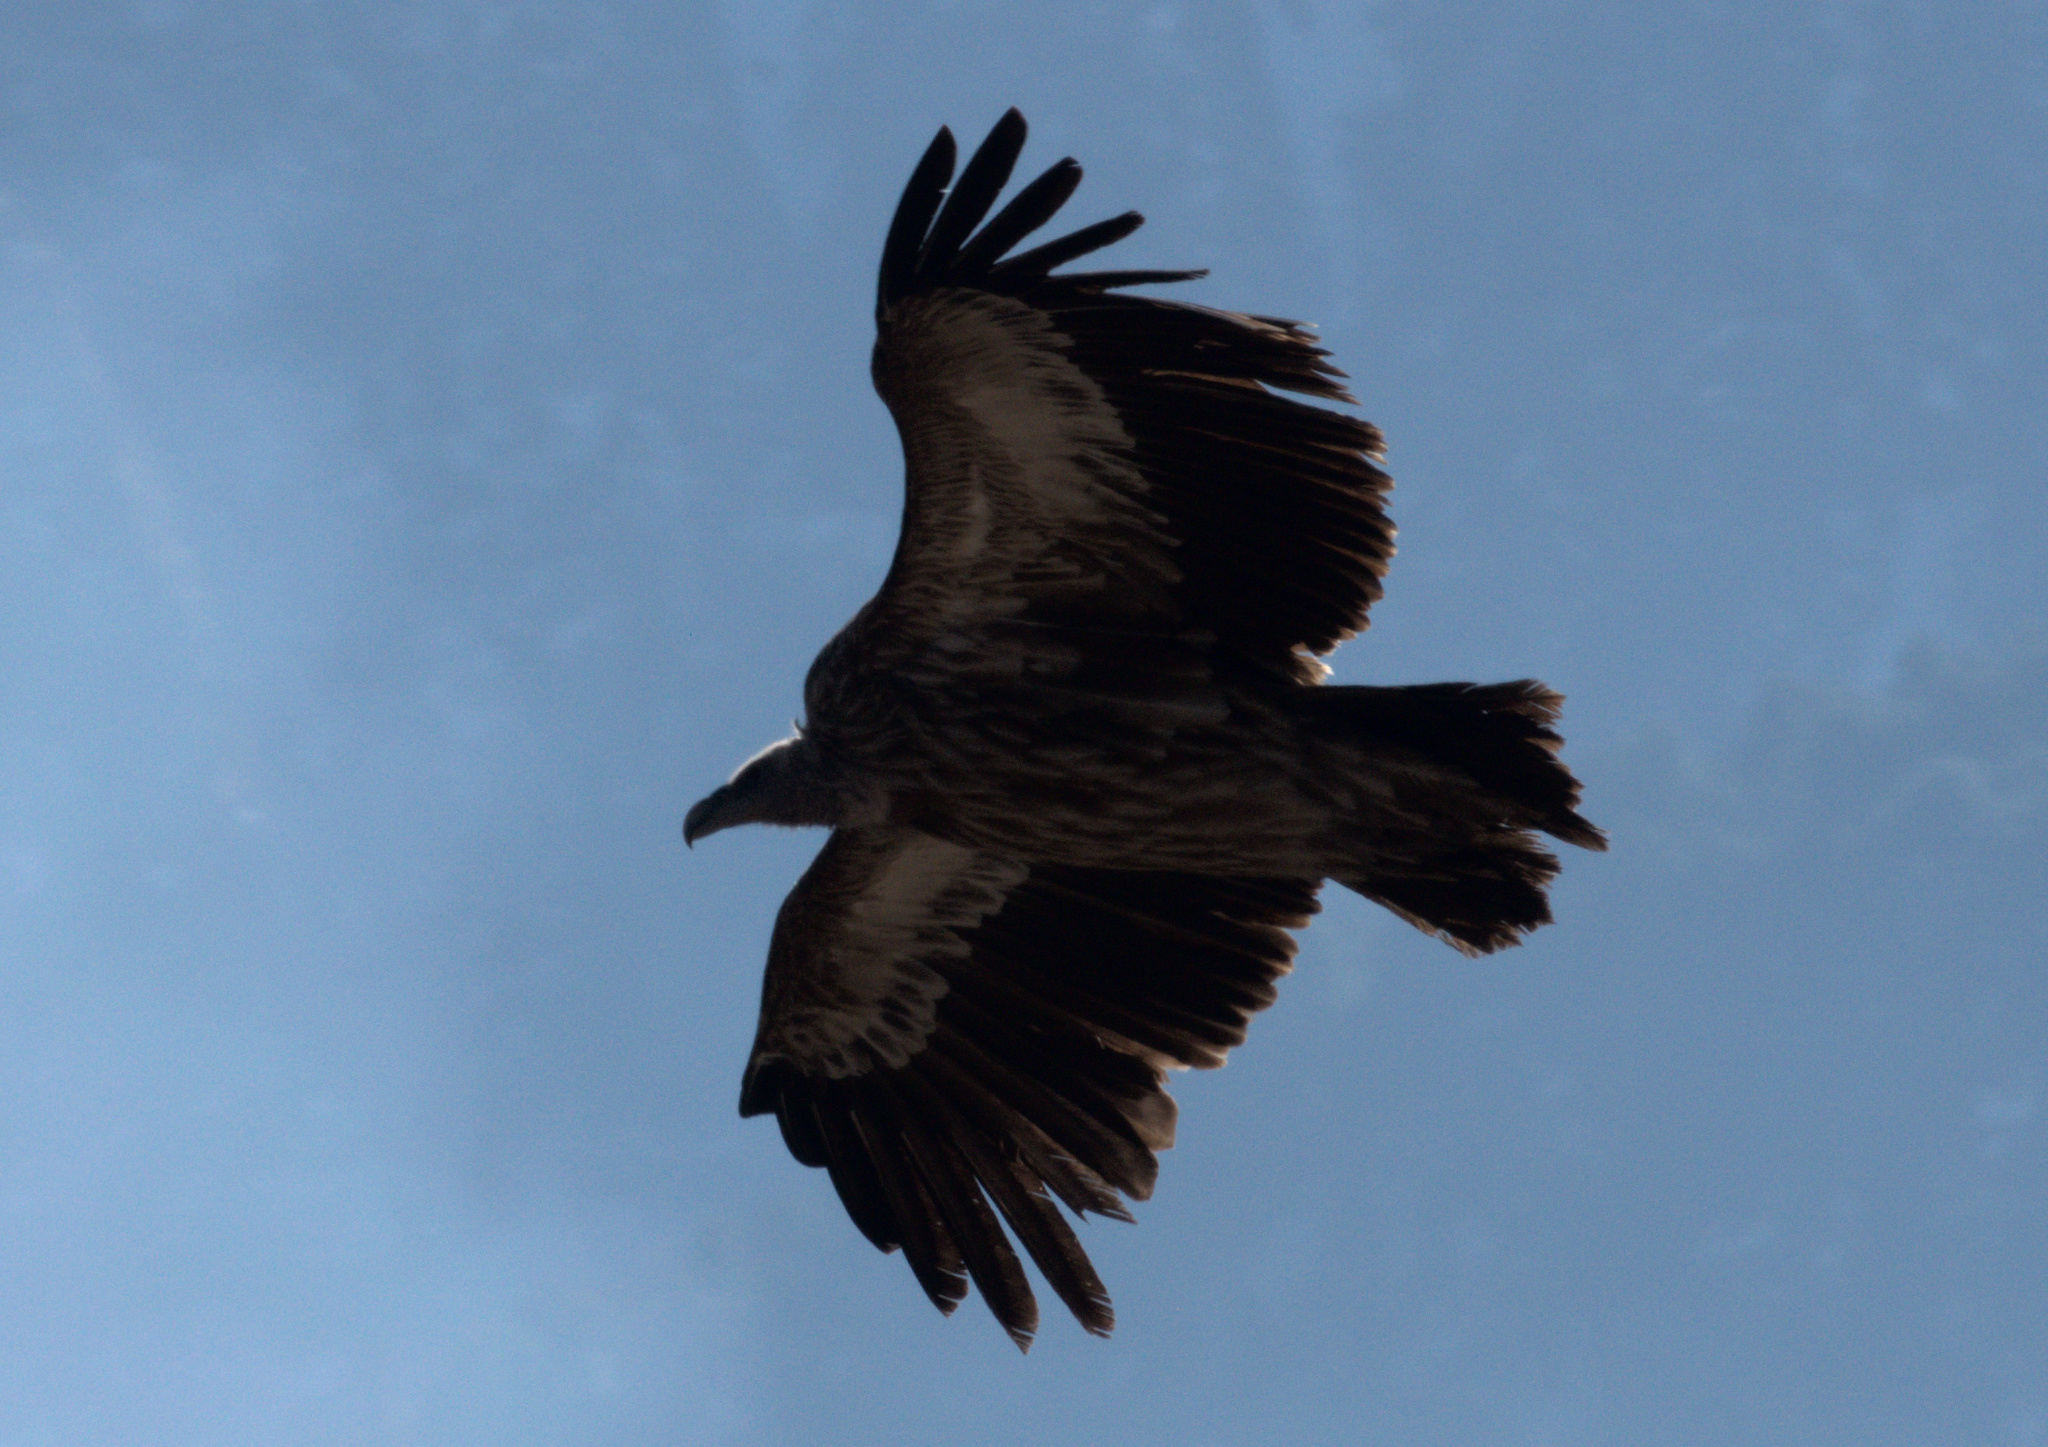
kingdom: Animalia
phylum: Chordata
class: Aves
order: Accipitriformes
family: Accipitridae
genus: Gyps
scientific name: Gyps himalayensis
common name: Himalayan griffon
